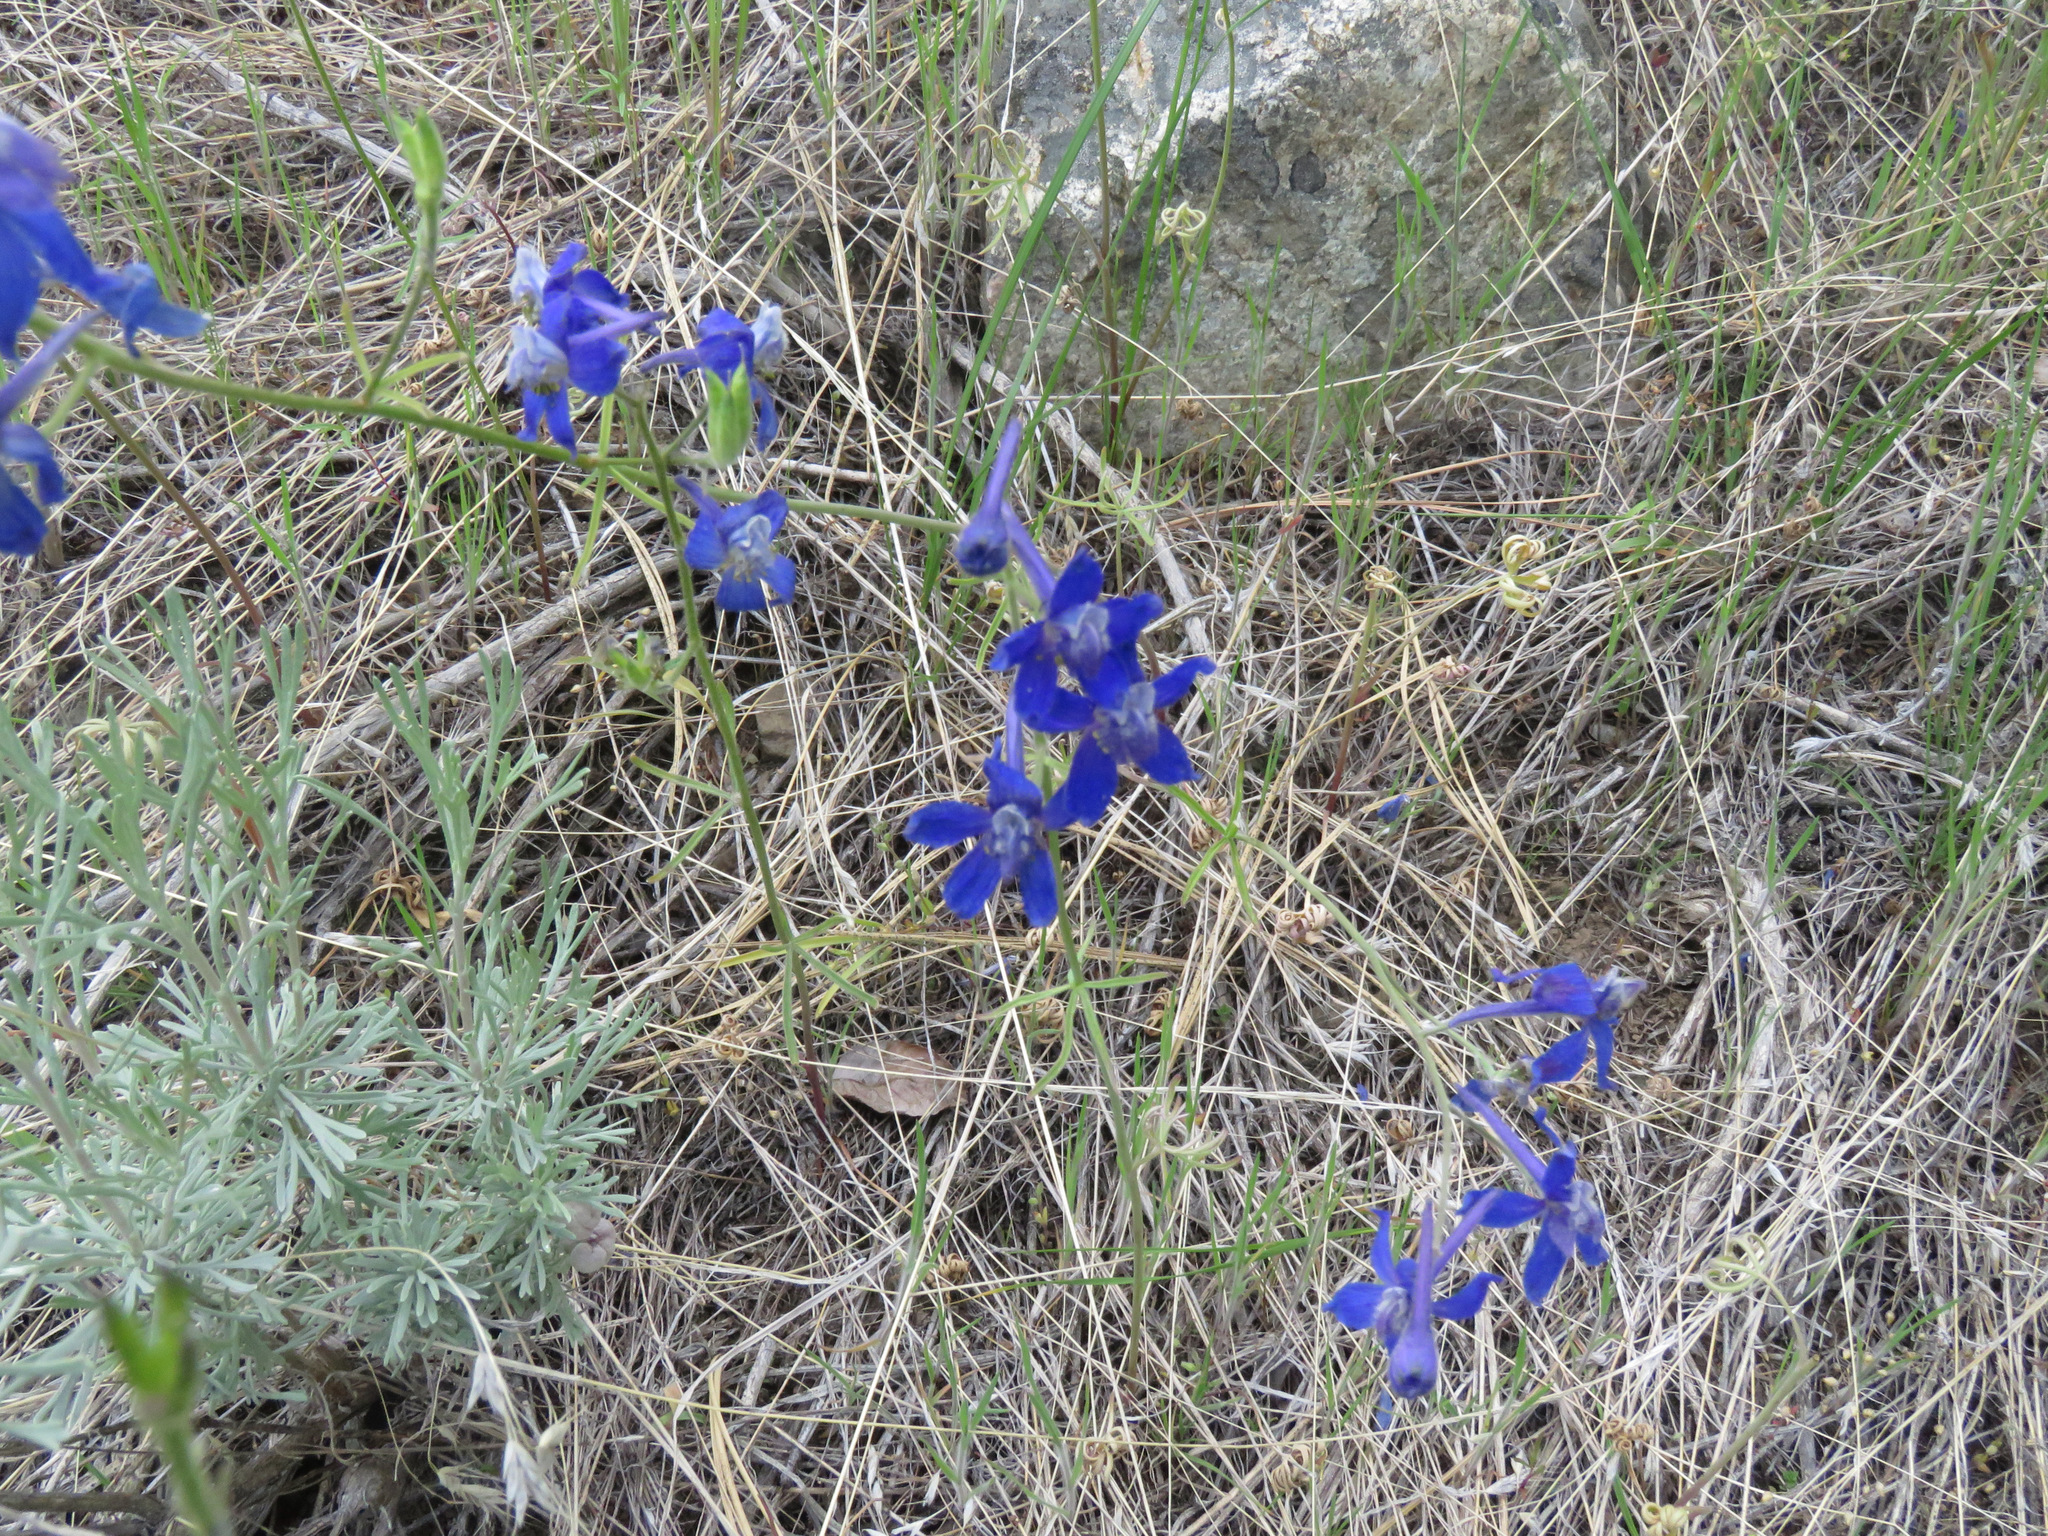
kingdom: Plantae
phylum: Tracheophyta
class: Magnoliopsida
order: Ranunculales
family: Ranunculaceae
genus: Delphinium
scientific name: Delphinium nuttallianum
